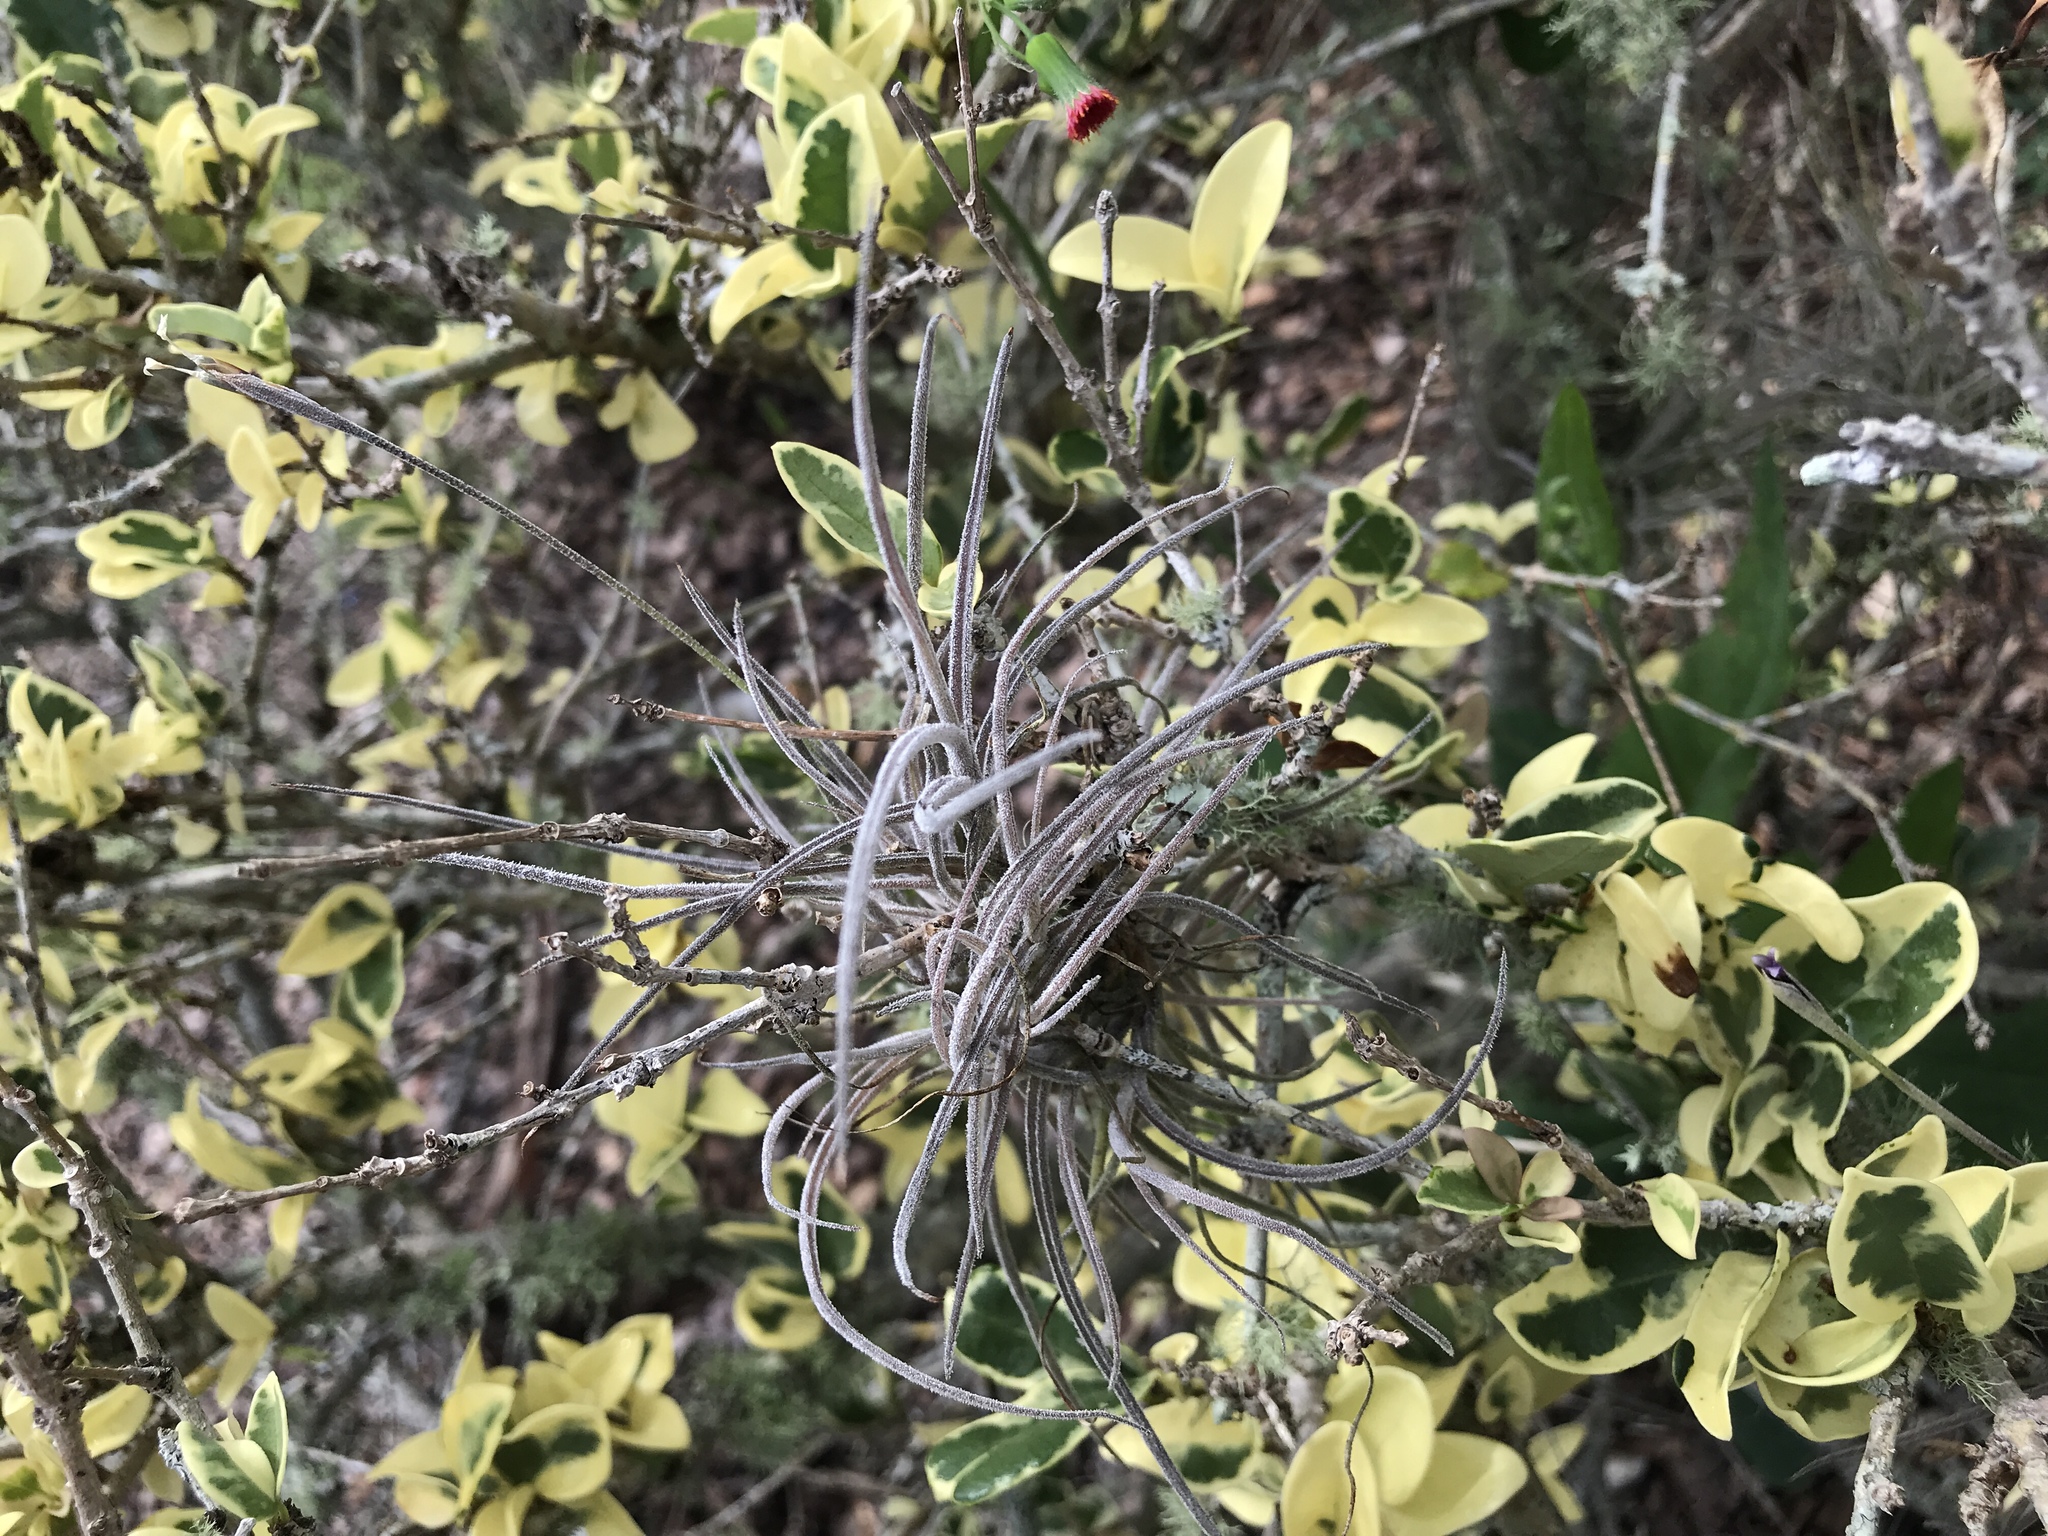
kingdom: Plantae
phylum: Tracheophyta
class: Liliopsida
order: Poales
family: Bromeliaceae
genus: Tillandsia
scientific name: Tillandsia recurvata
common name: Small ballmoss
